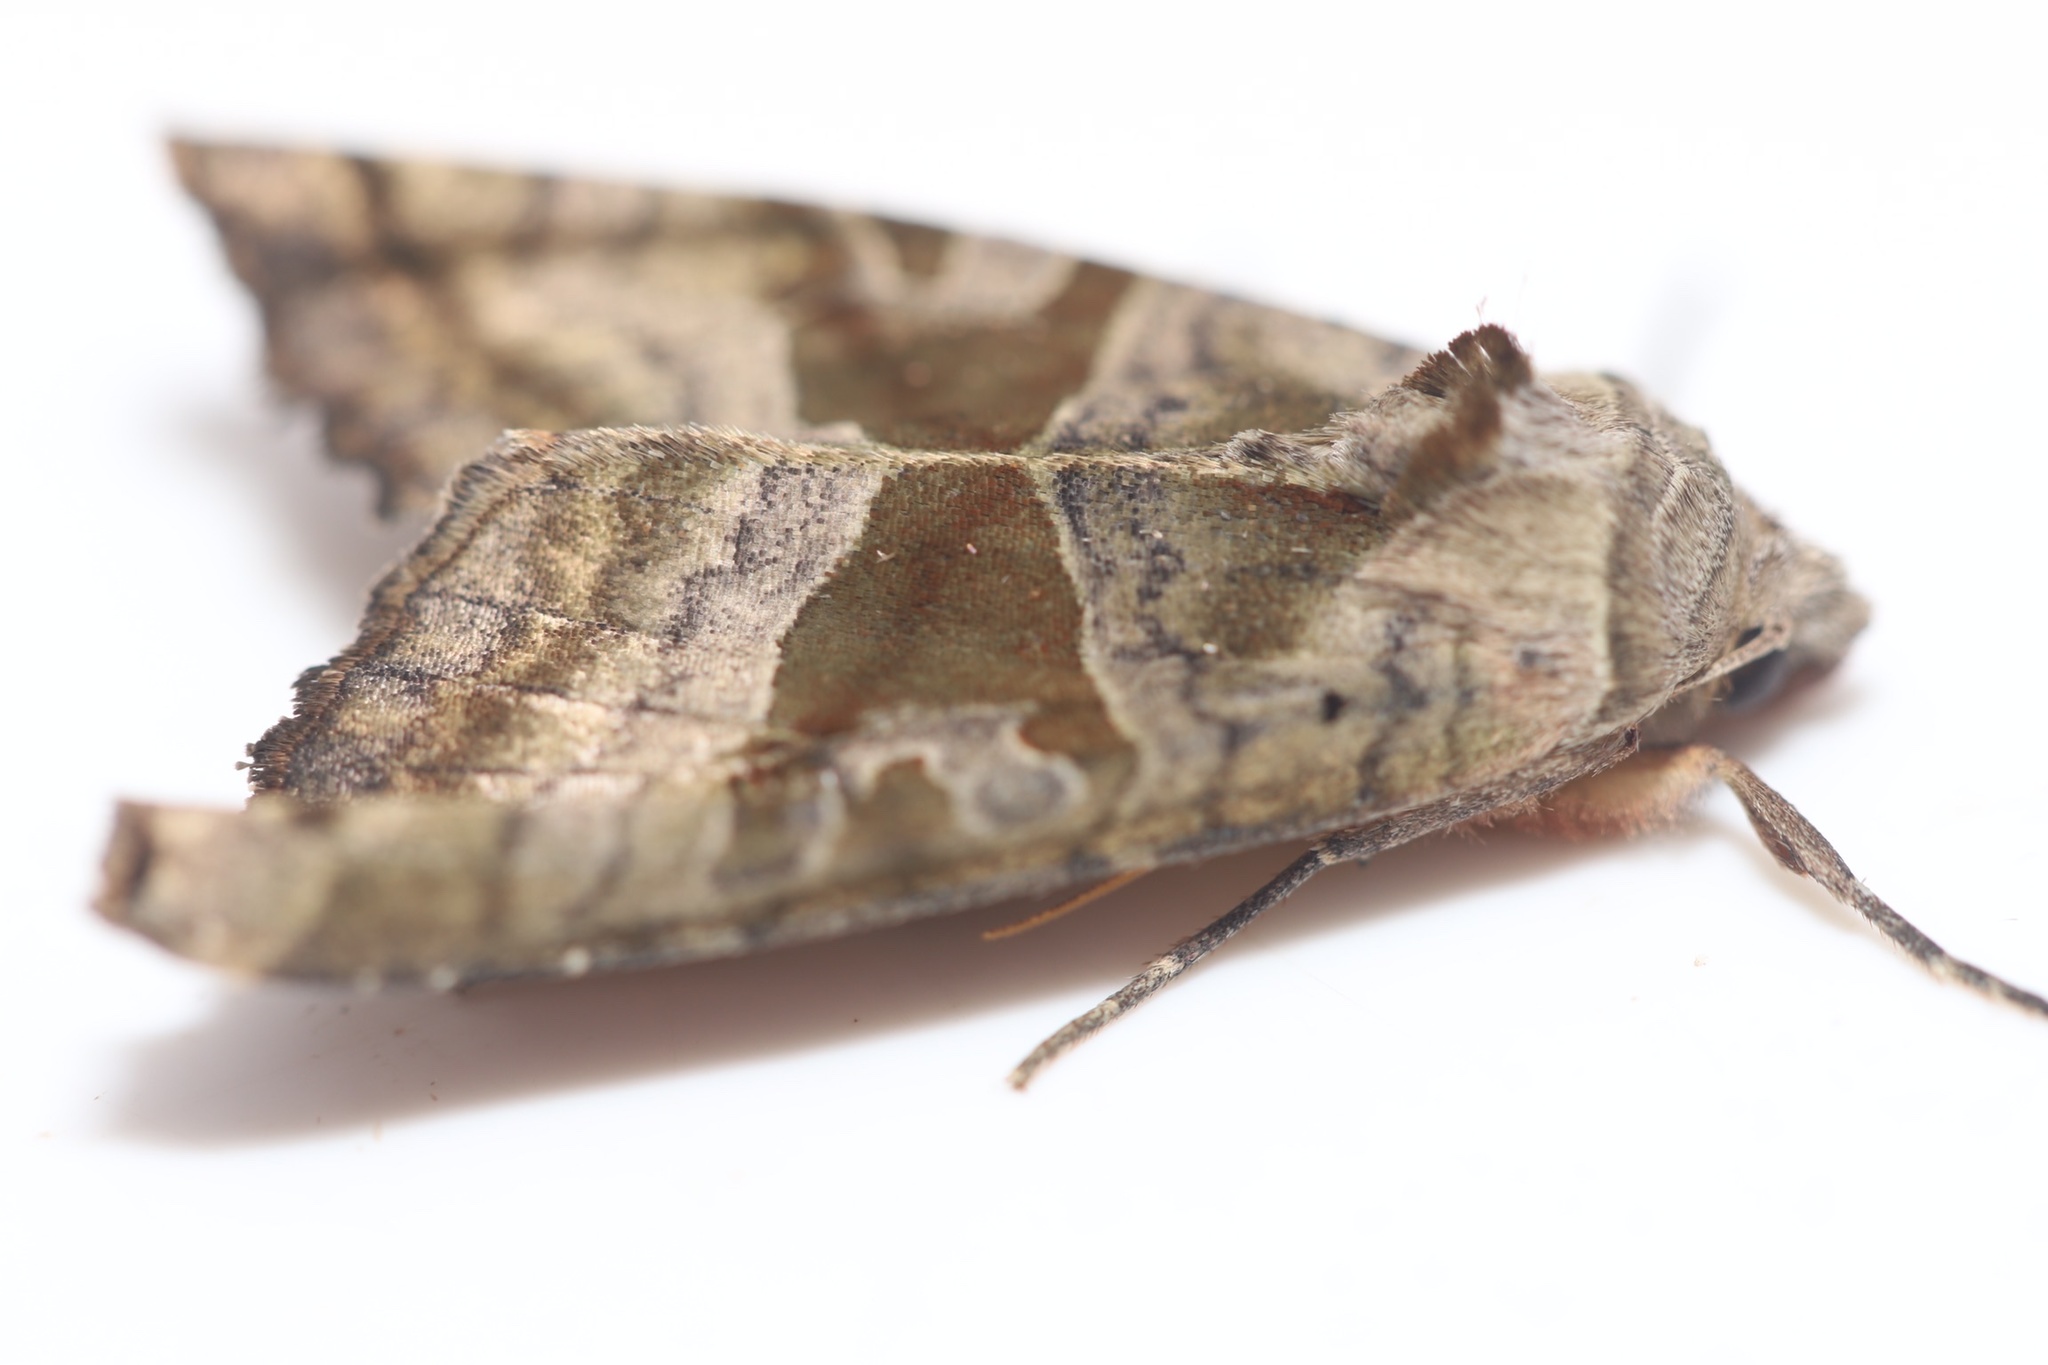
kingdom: Animalia
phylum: Arthropoda
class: Insecta
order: Lepidoptera
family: Noctuidae
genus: Phlogophora
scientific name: Phlogophora periculosa
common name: Brown angle shades
